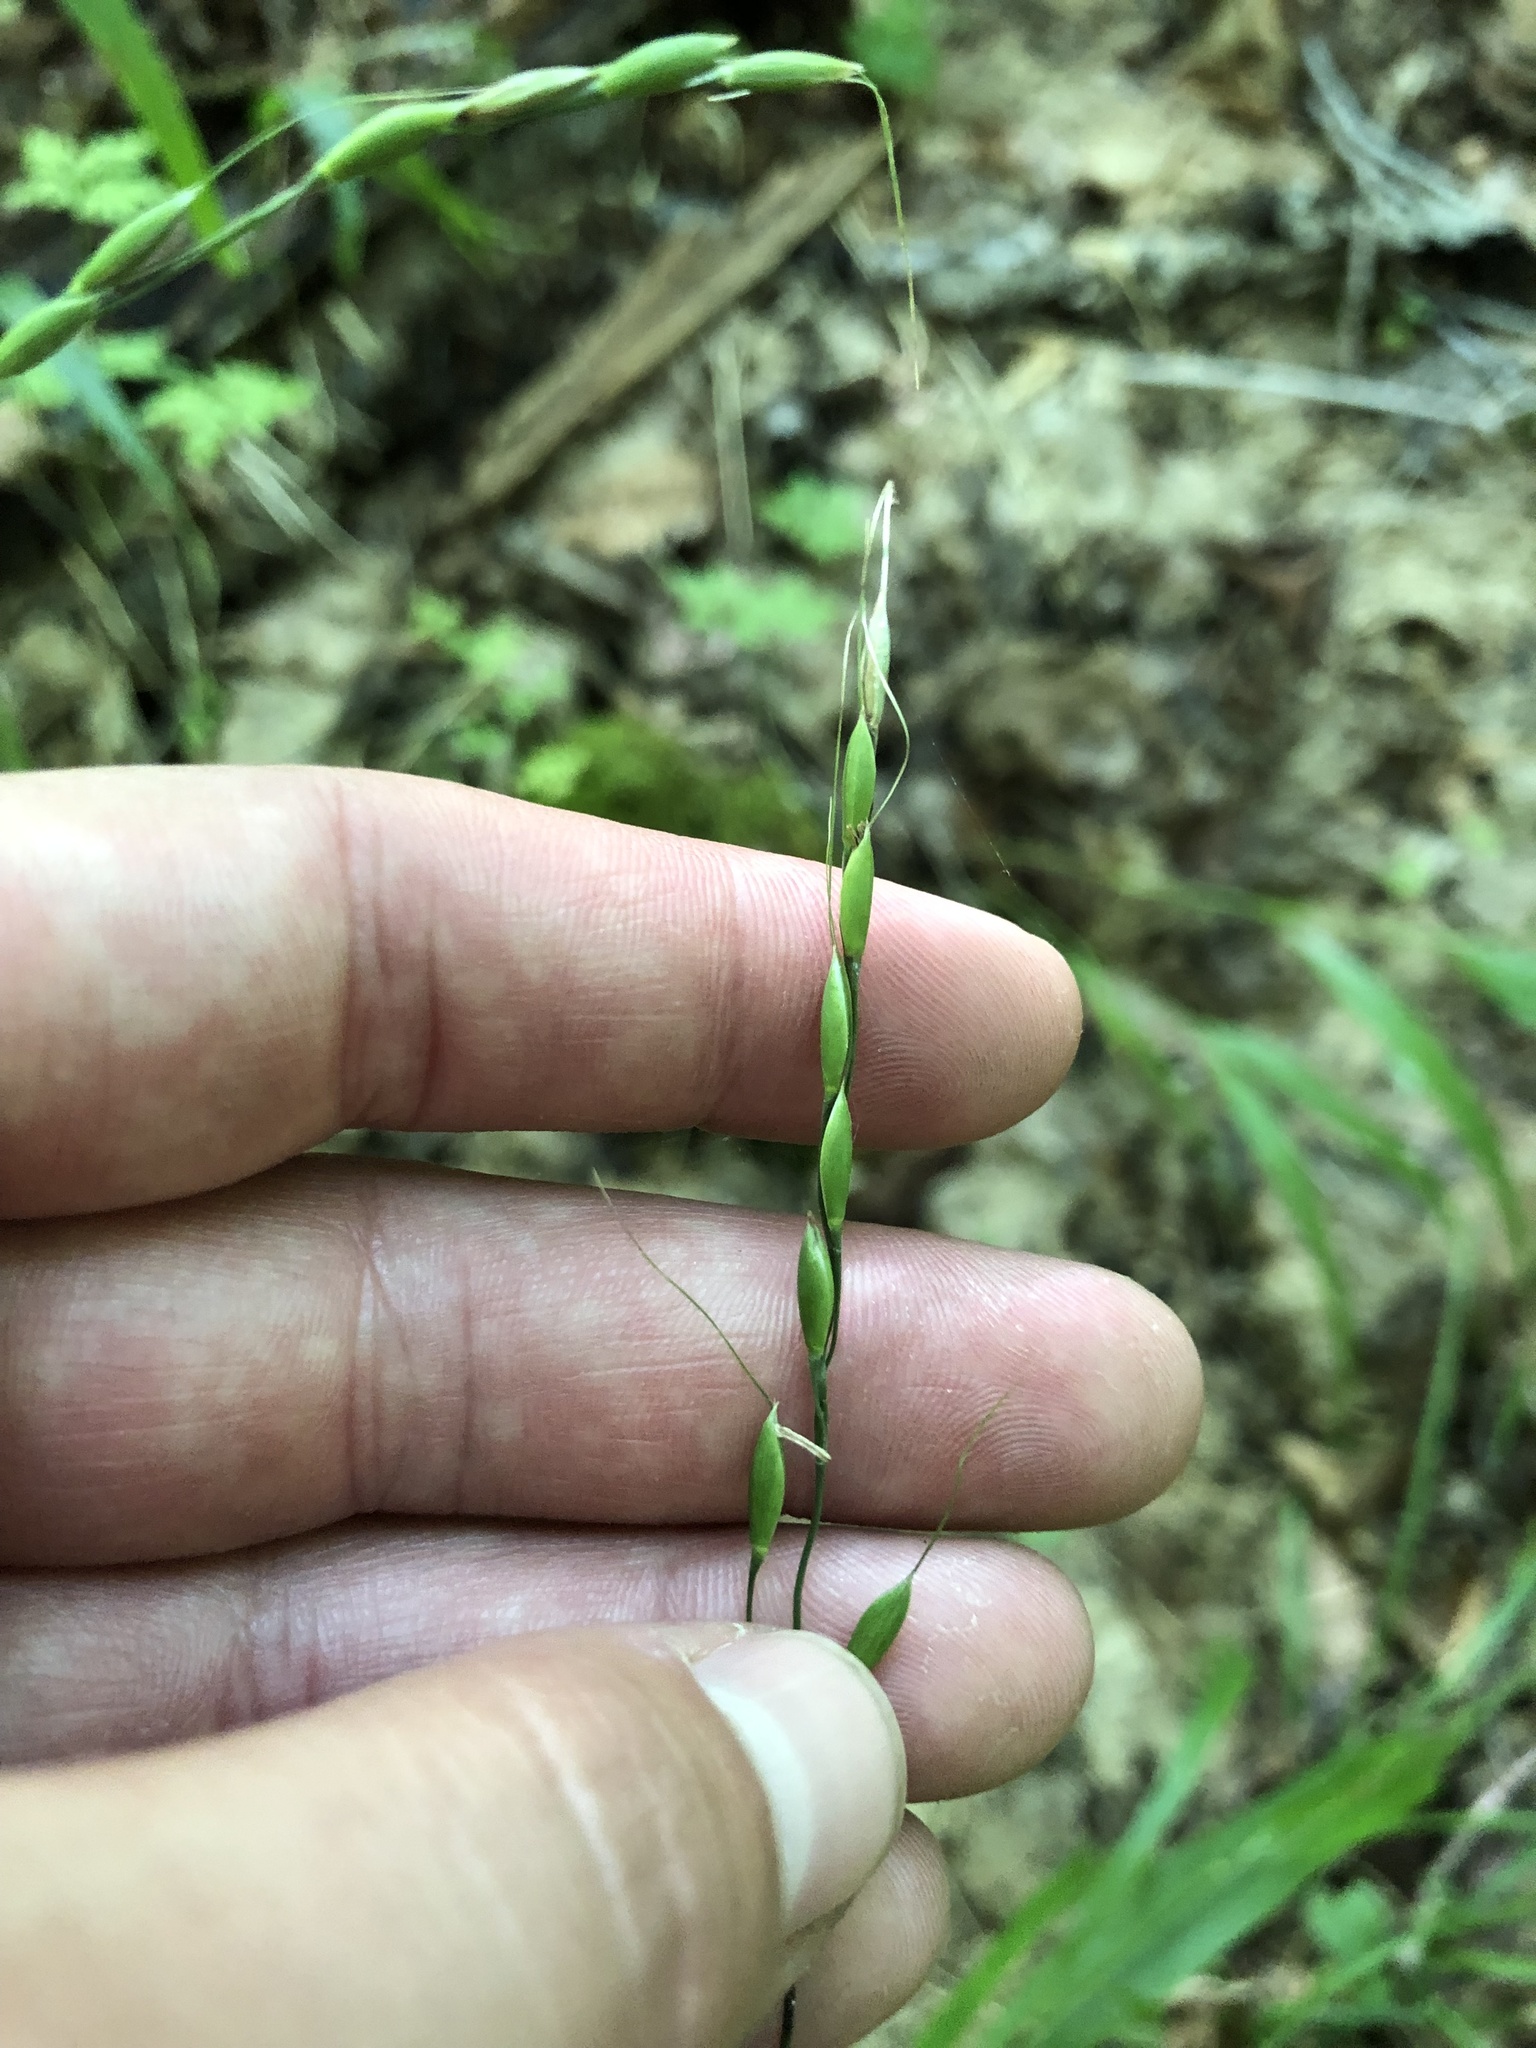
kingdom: Plantae
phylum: Tracheophyta
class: Liliopsida
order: Poales
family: Poaceae
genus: Patis
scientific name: Patis racemosa
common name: Black-fruited mountain rice
